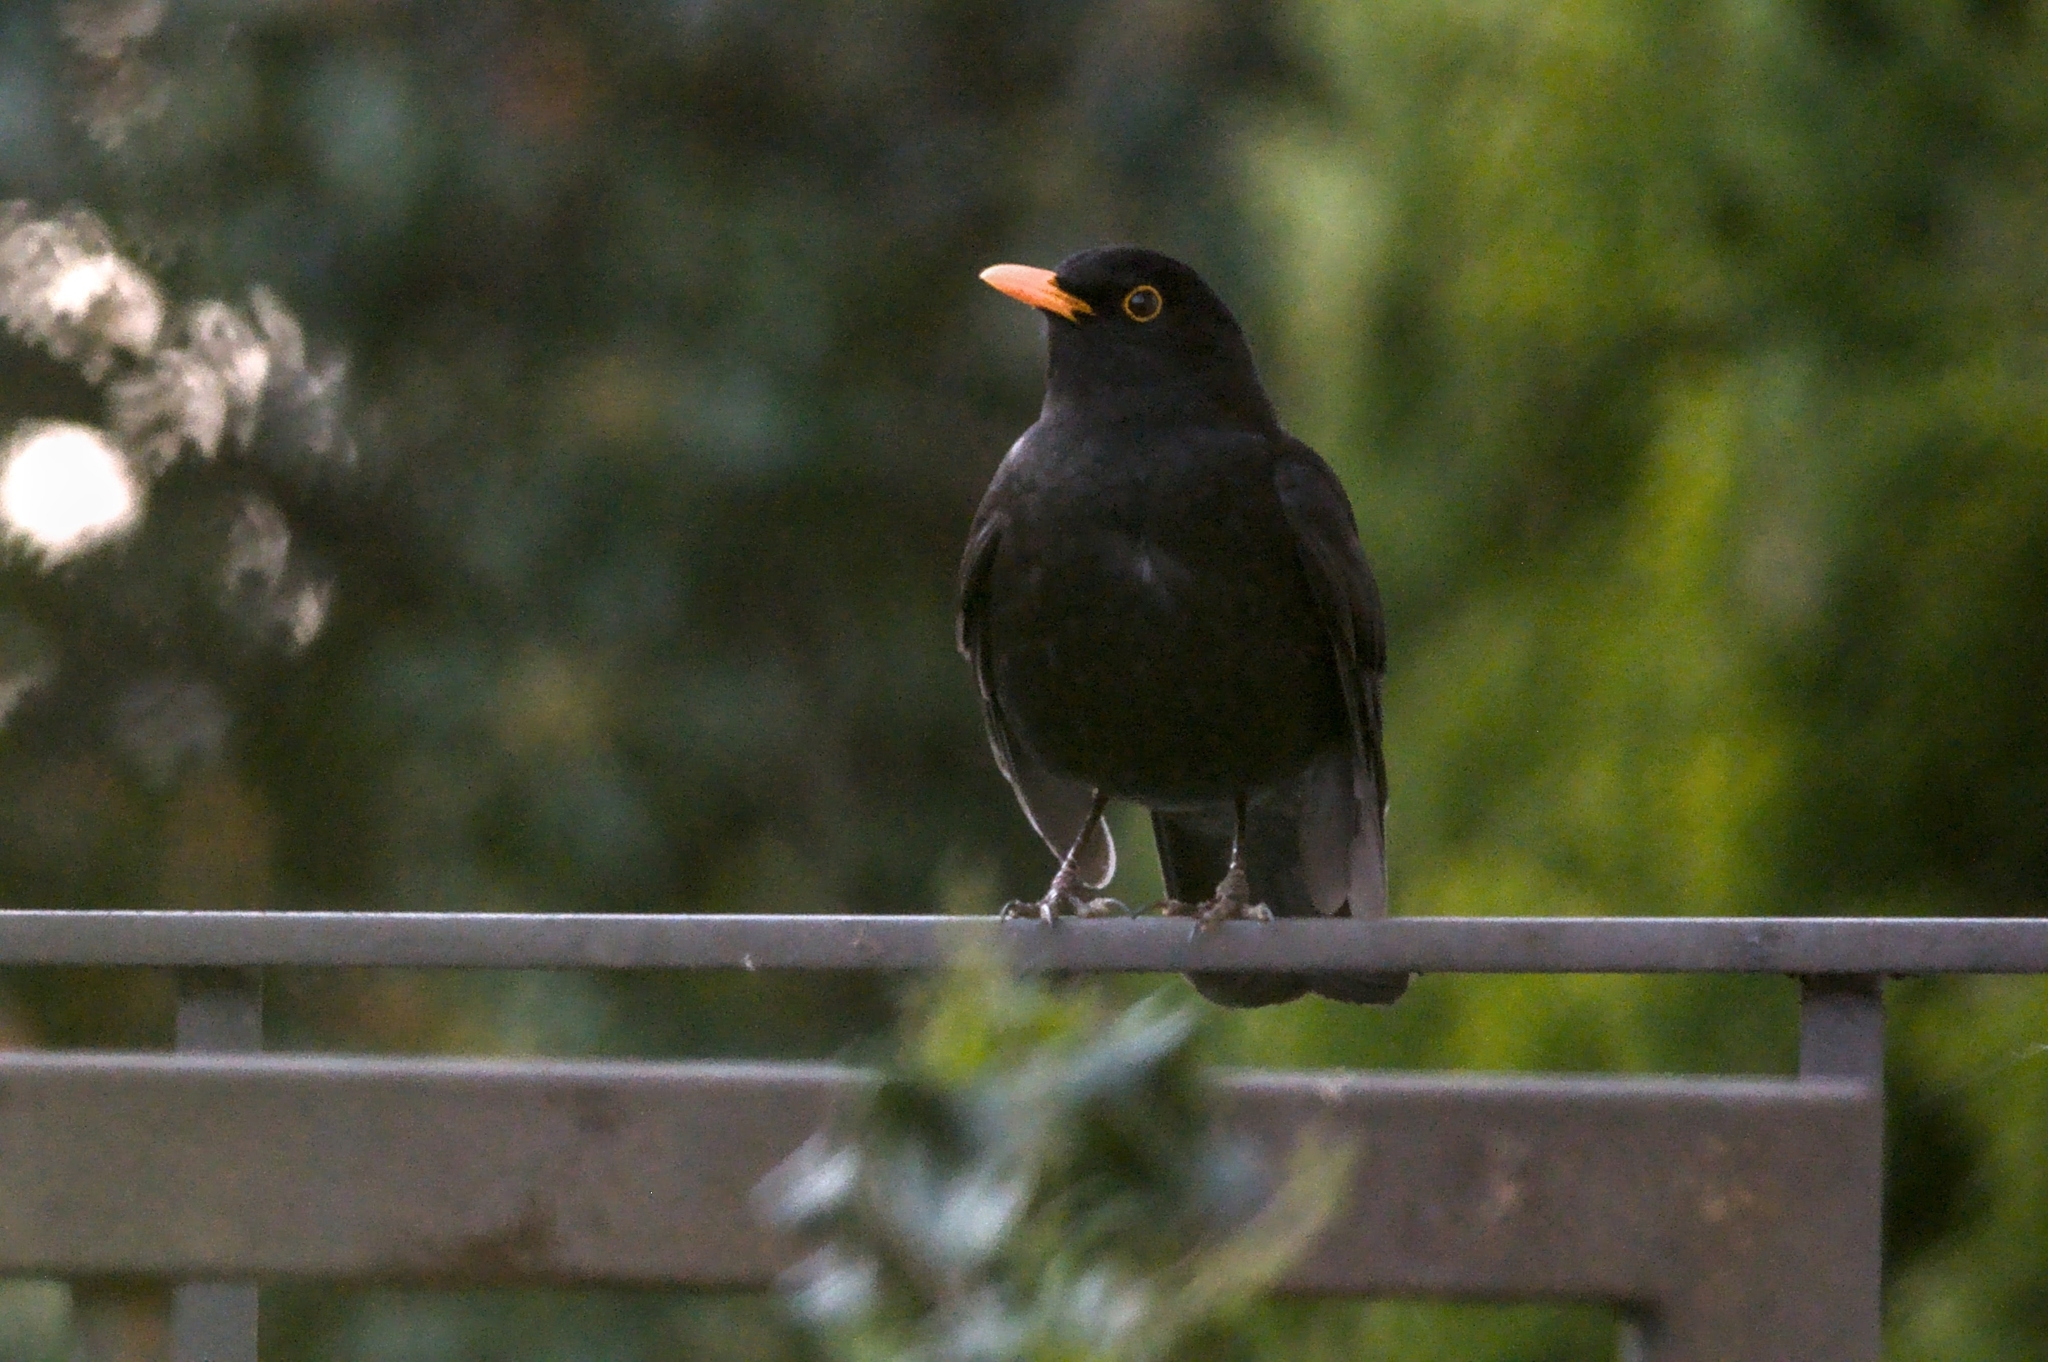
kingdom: Animalia
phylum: Chordata
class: Aves
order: Passeriformes
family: Turdidae
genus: Turdus
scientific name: Turdus merula
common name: Common blackbird
